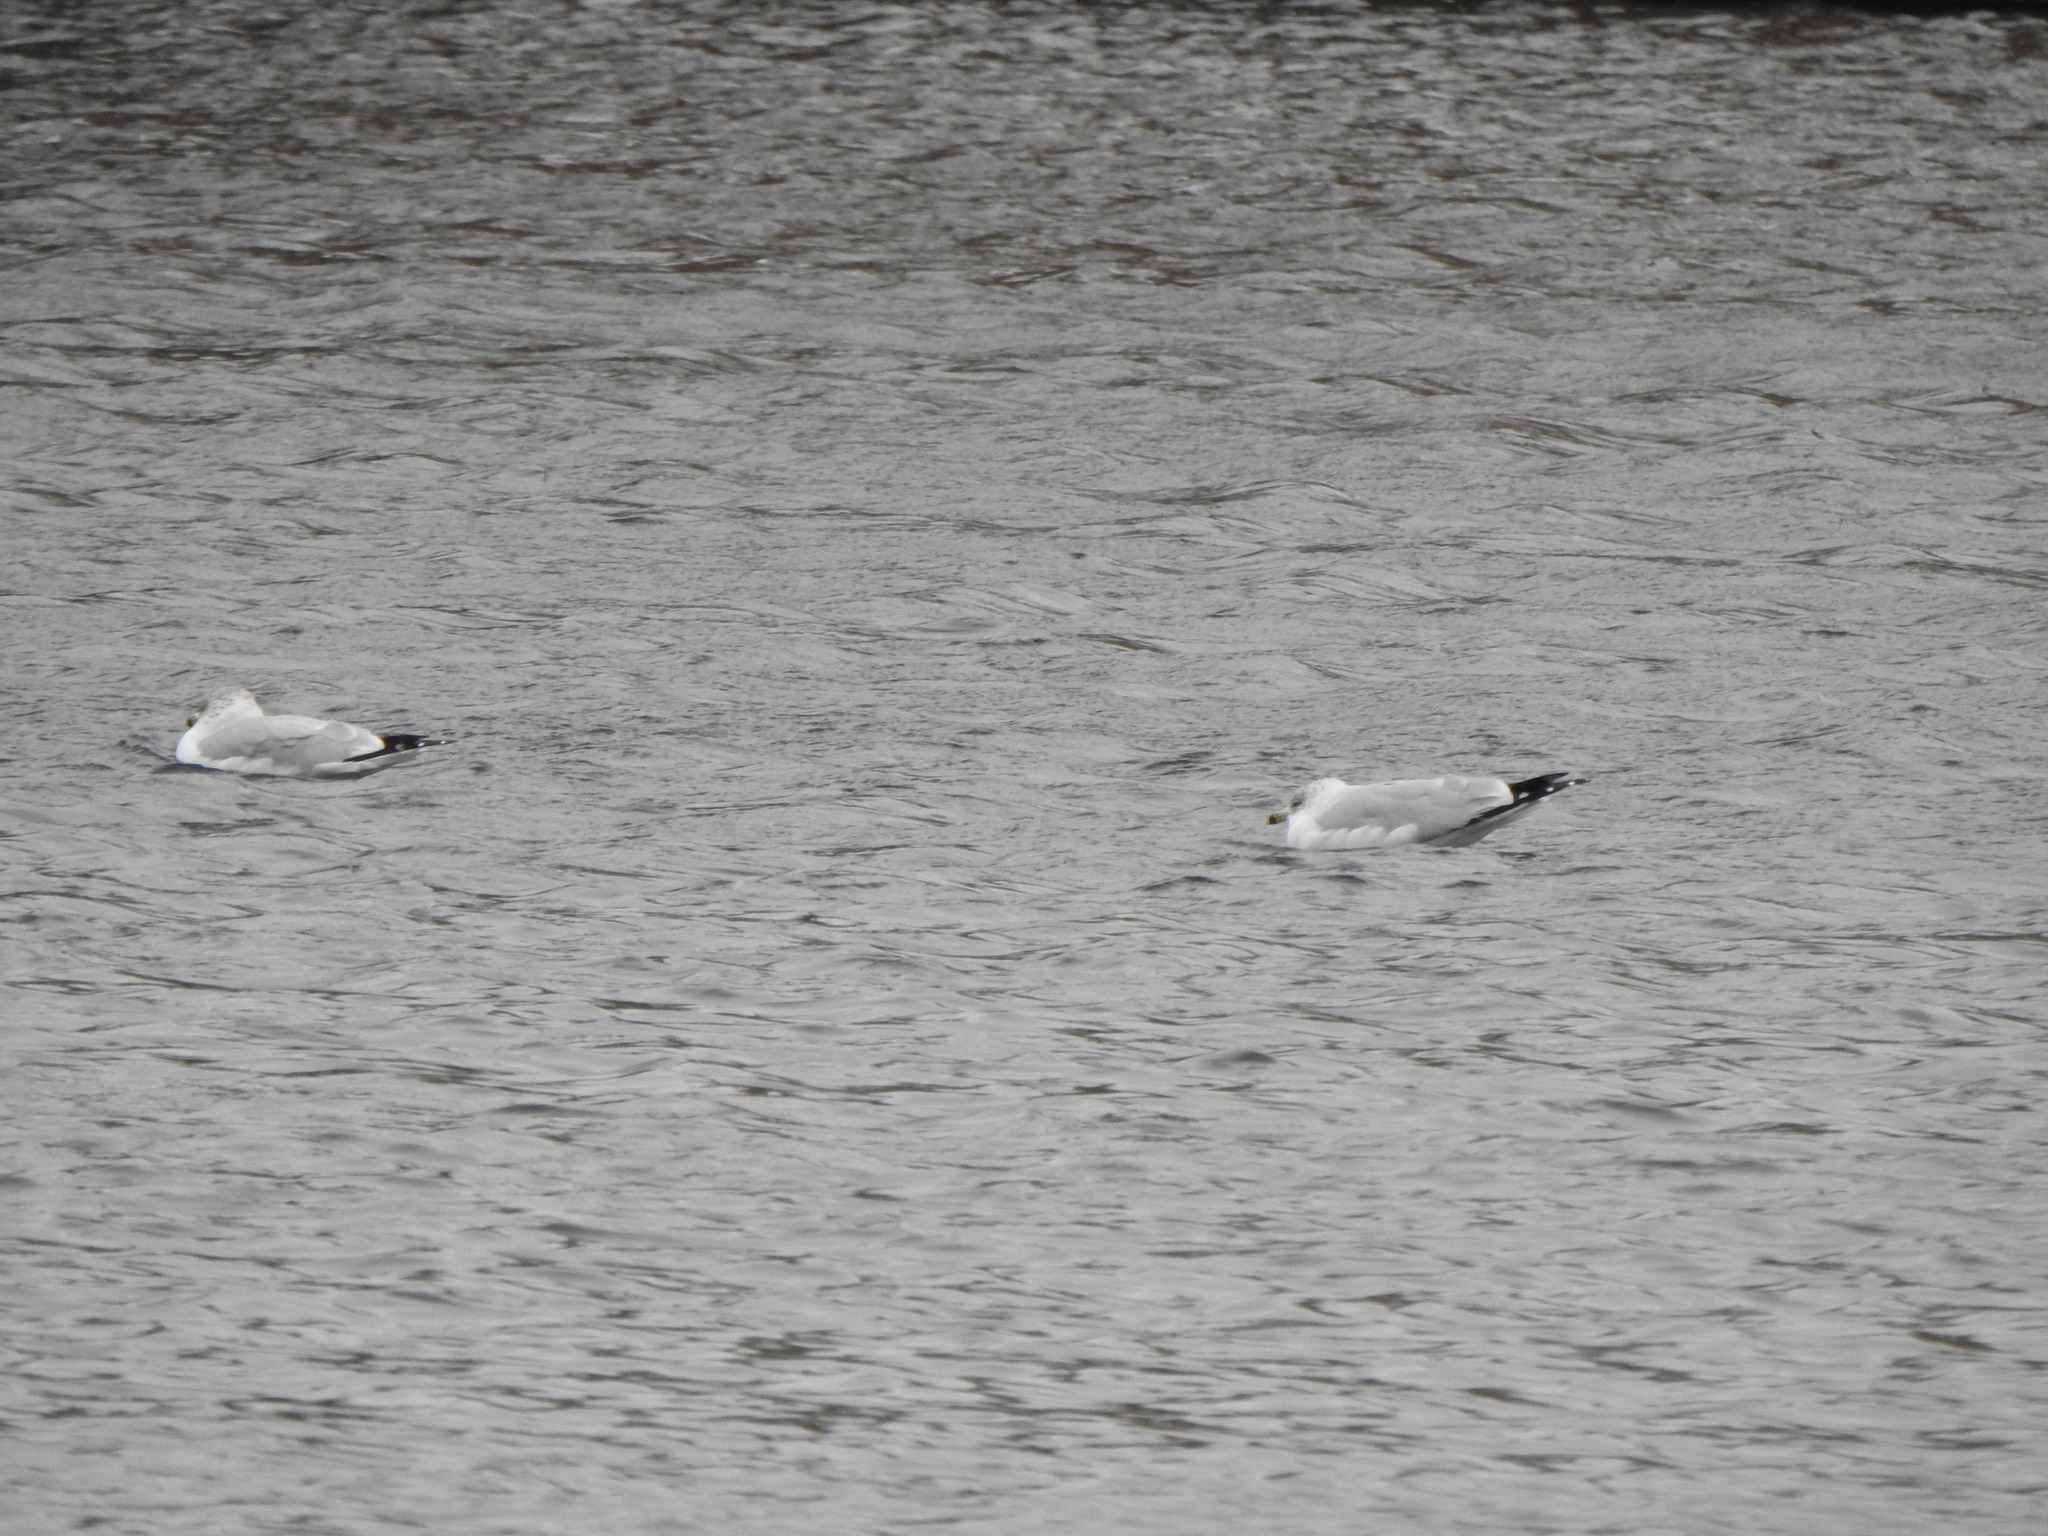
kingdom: Animalia
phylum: Chordata
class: Aves
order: Charadriiformes
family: Laridae
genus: Larus
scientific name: Larus delawarensis
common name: Ring-billed gull
